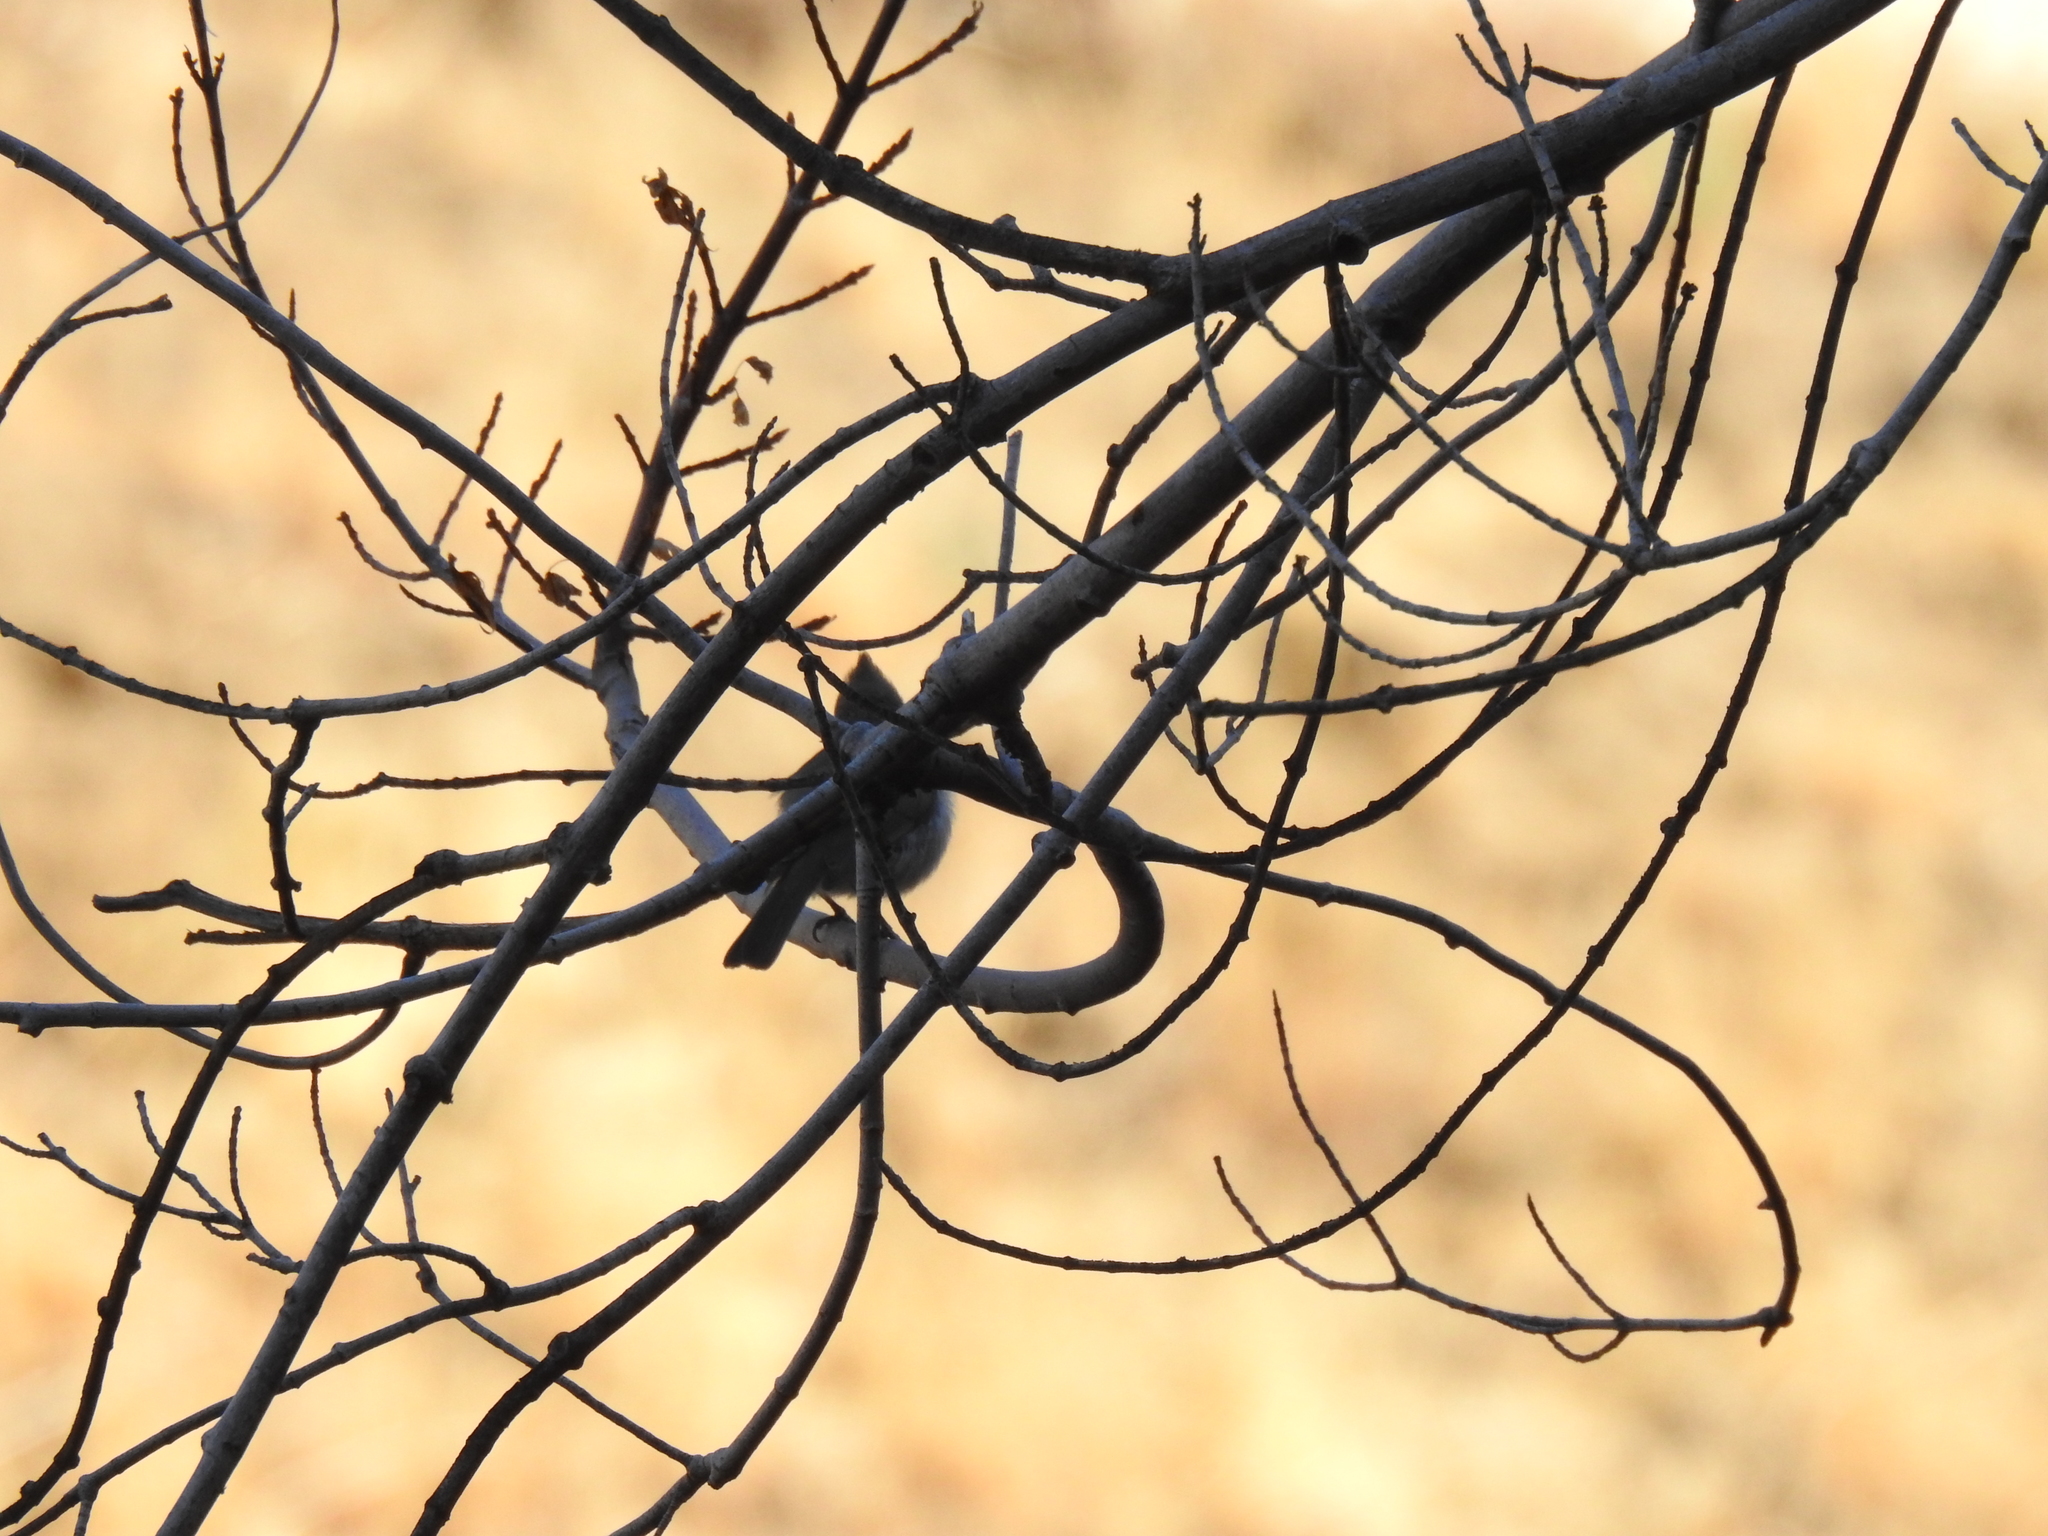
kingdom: Animalia
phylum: Chordata
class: Aves
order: Passeriformes
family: Paridae
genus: Baeolophus
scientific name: Baeolophus inornatus
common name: Oak titmouse
